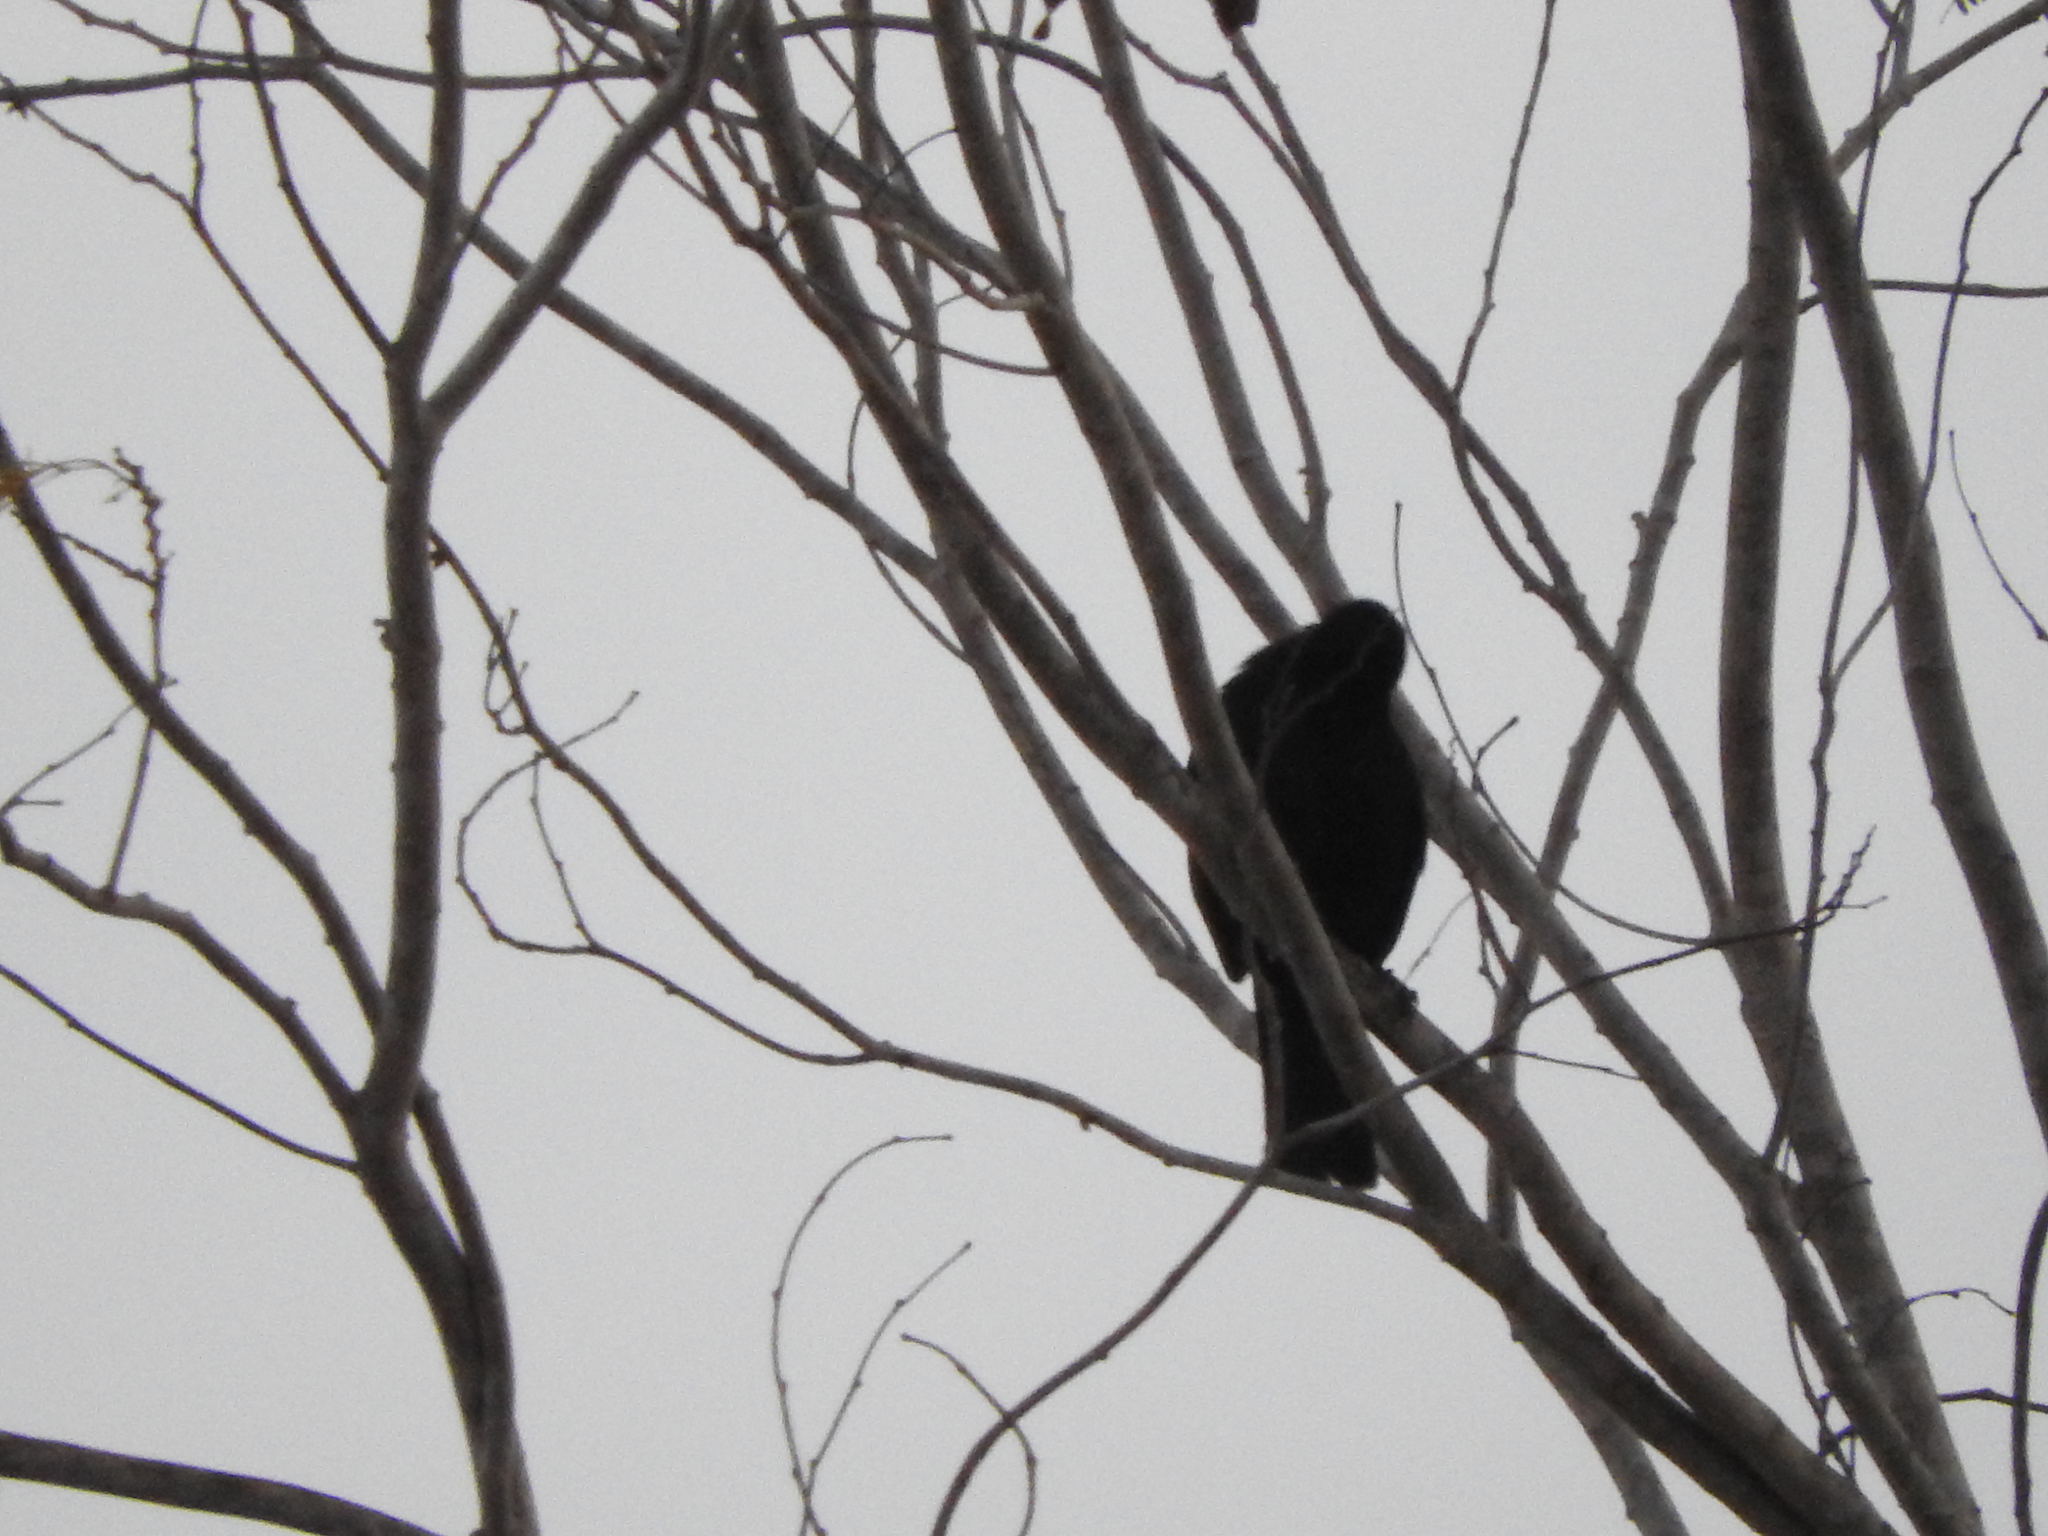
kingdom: Animalia
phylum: Chordata
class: Aves
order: Passeriformes
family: Icteridae
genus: Dives
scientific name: Dives dives
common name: Melodious blackbird
